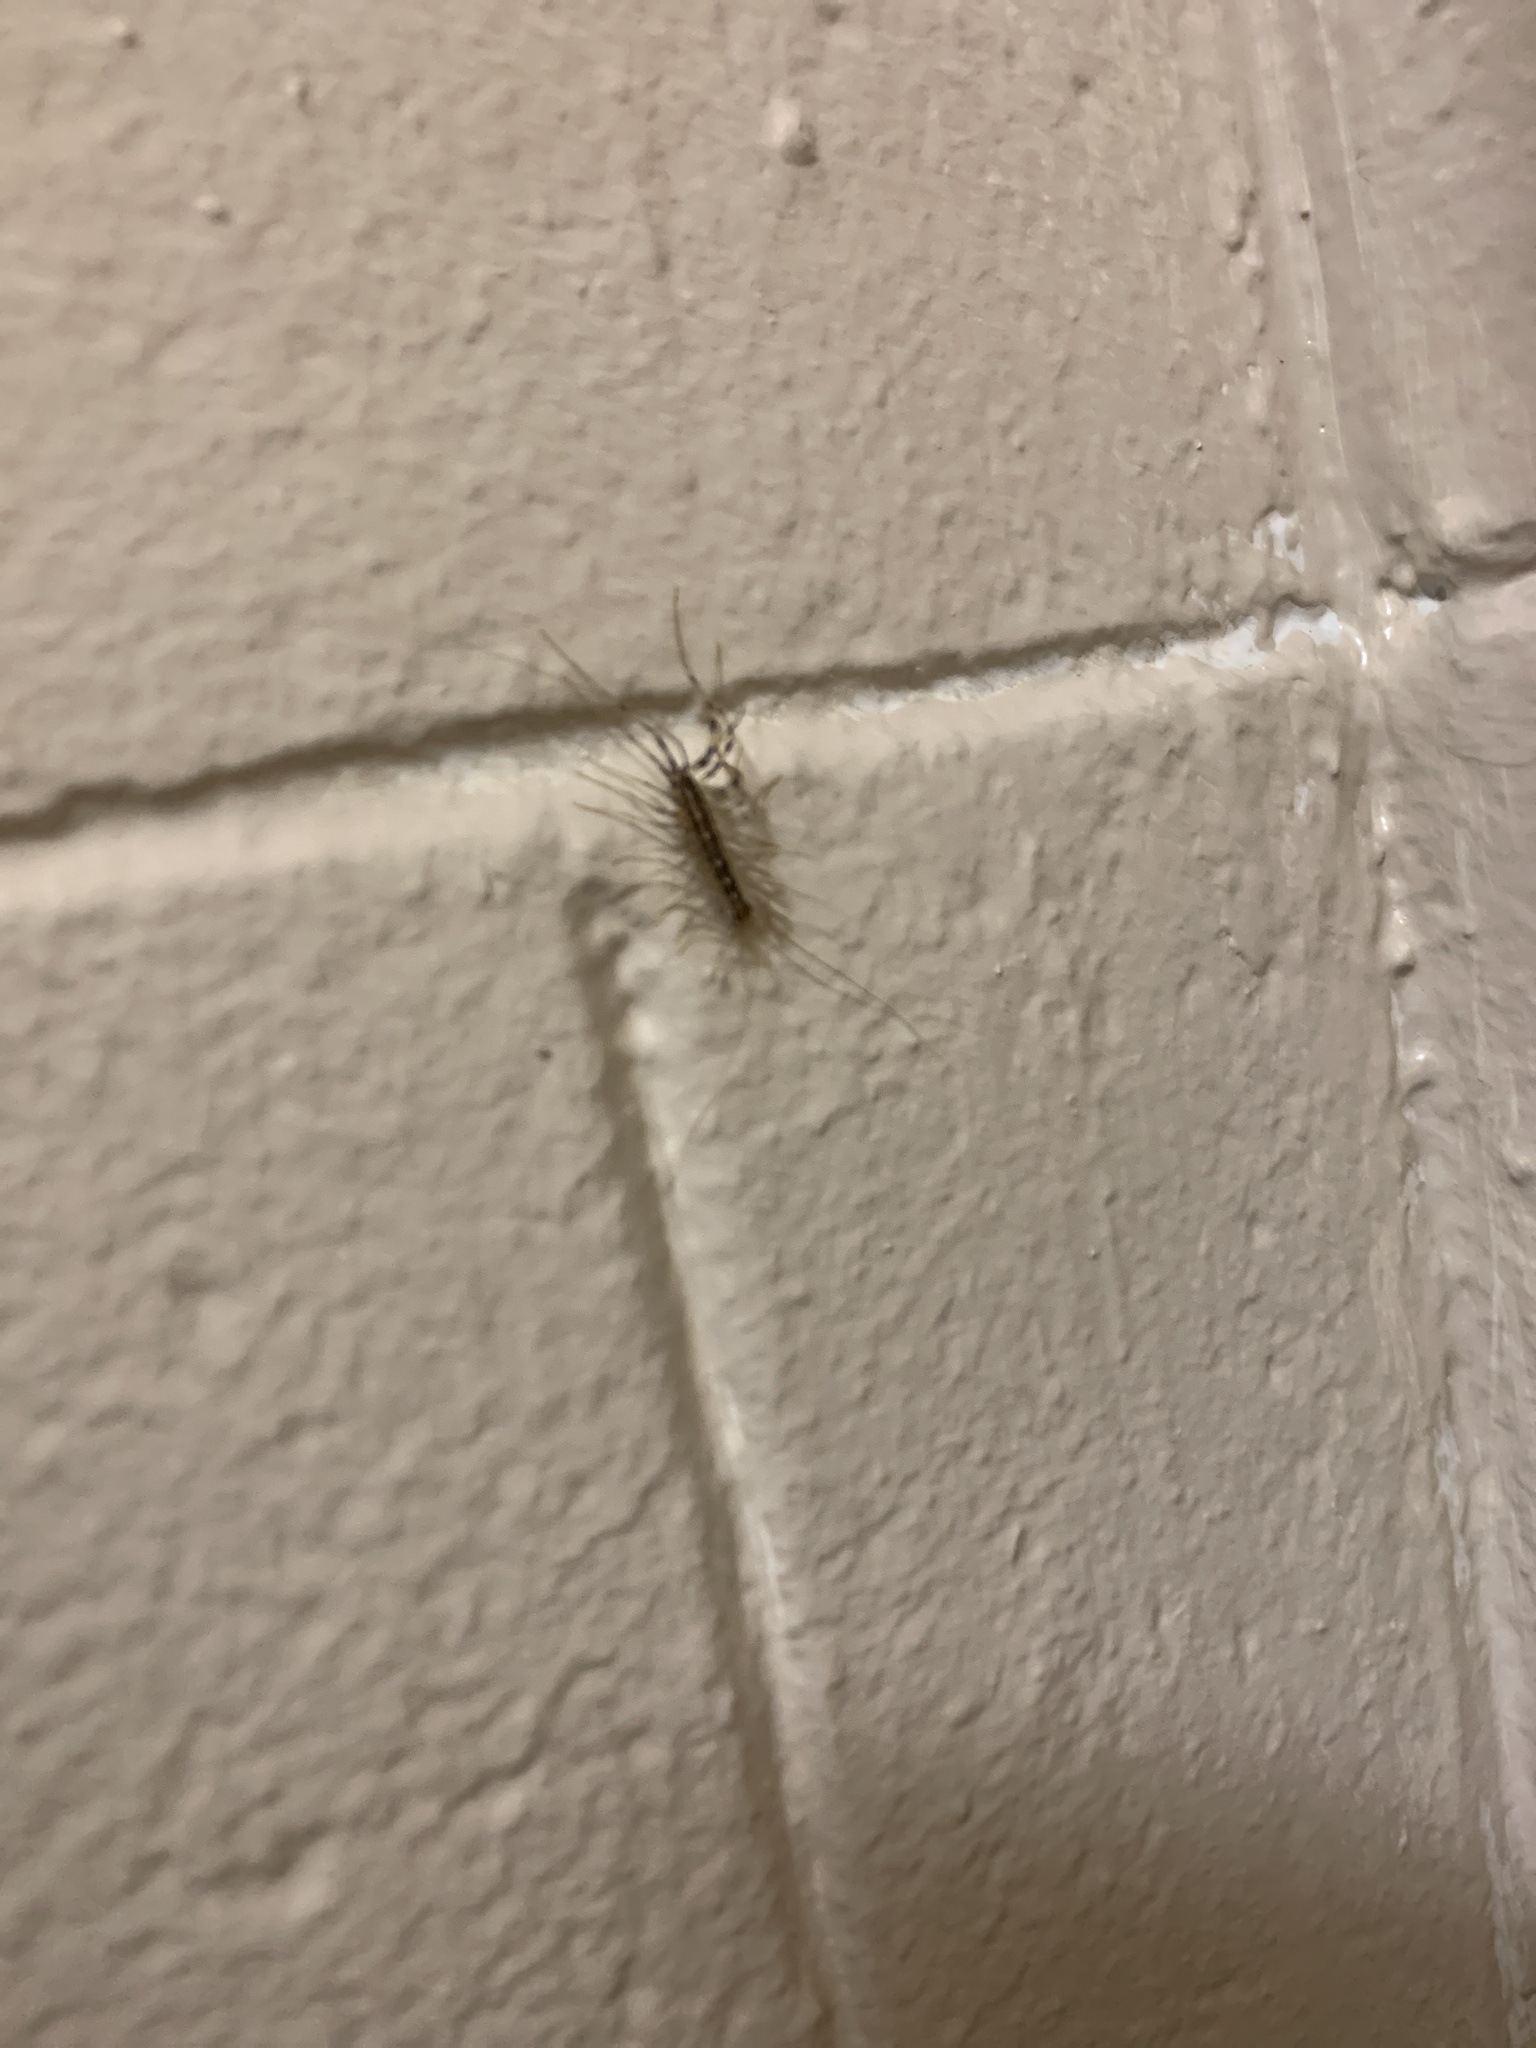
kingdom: Animalia
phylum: Arthropoda
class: Chilopoda
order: Scutigeromorpha
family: Scutigeridae
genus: Scutigera
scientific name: Scutigera coleoptrata
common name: House centipede
